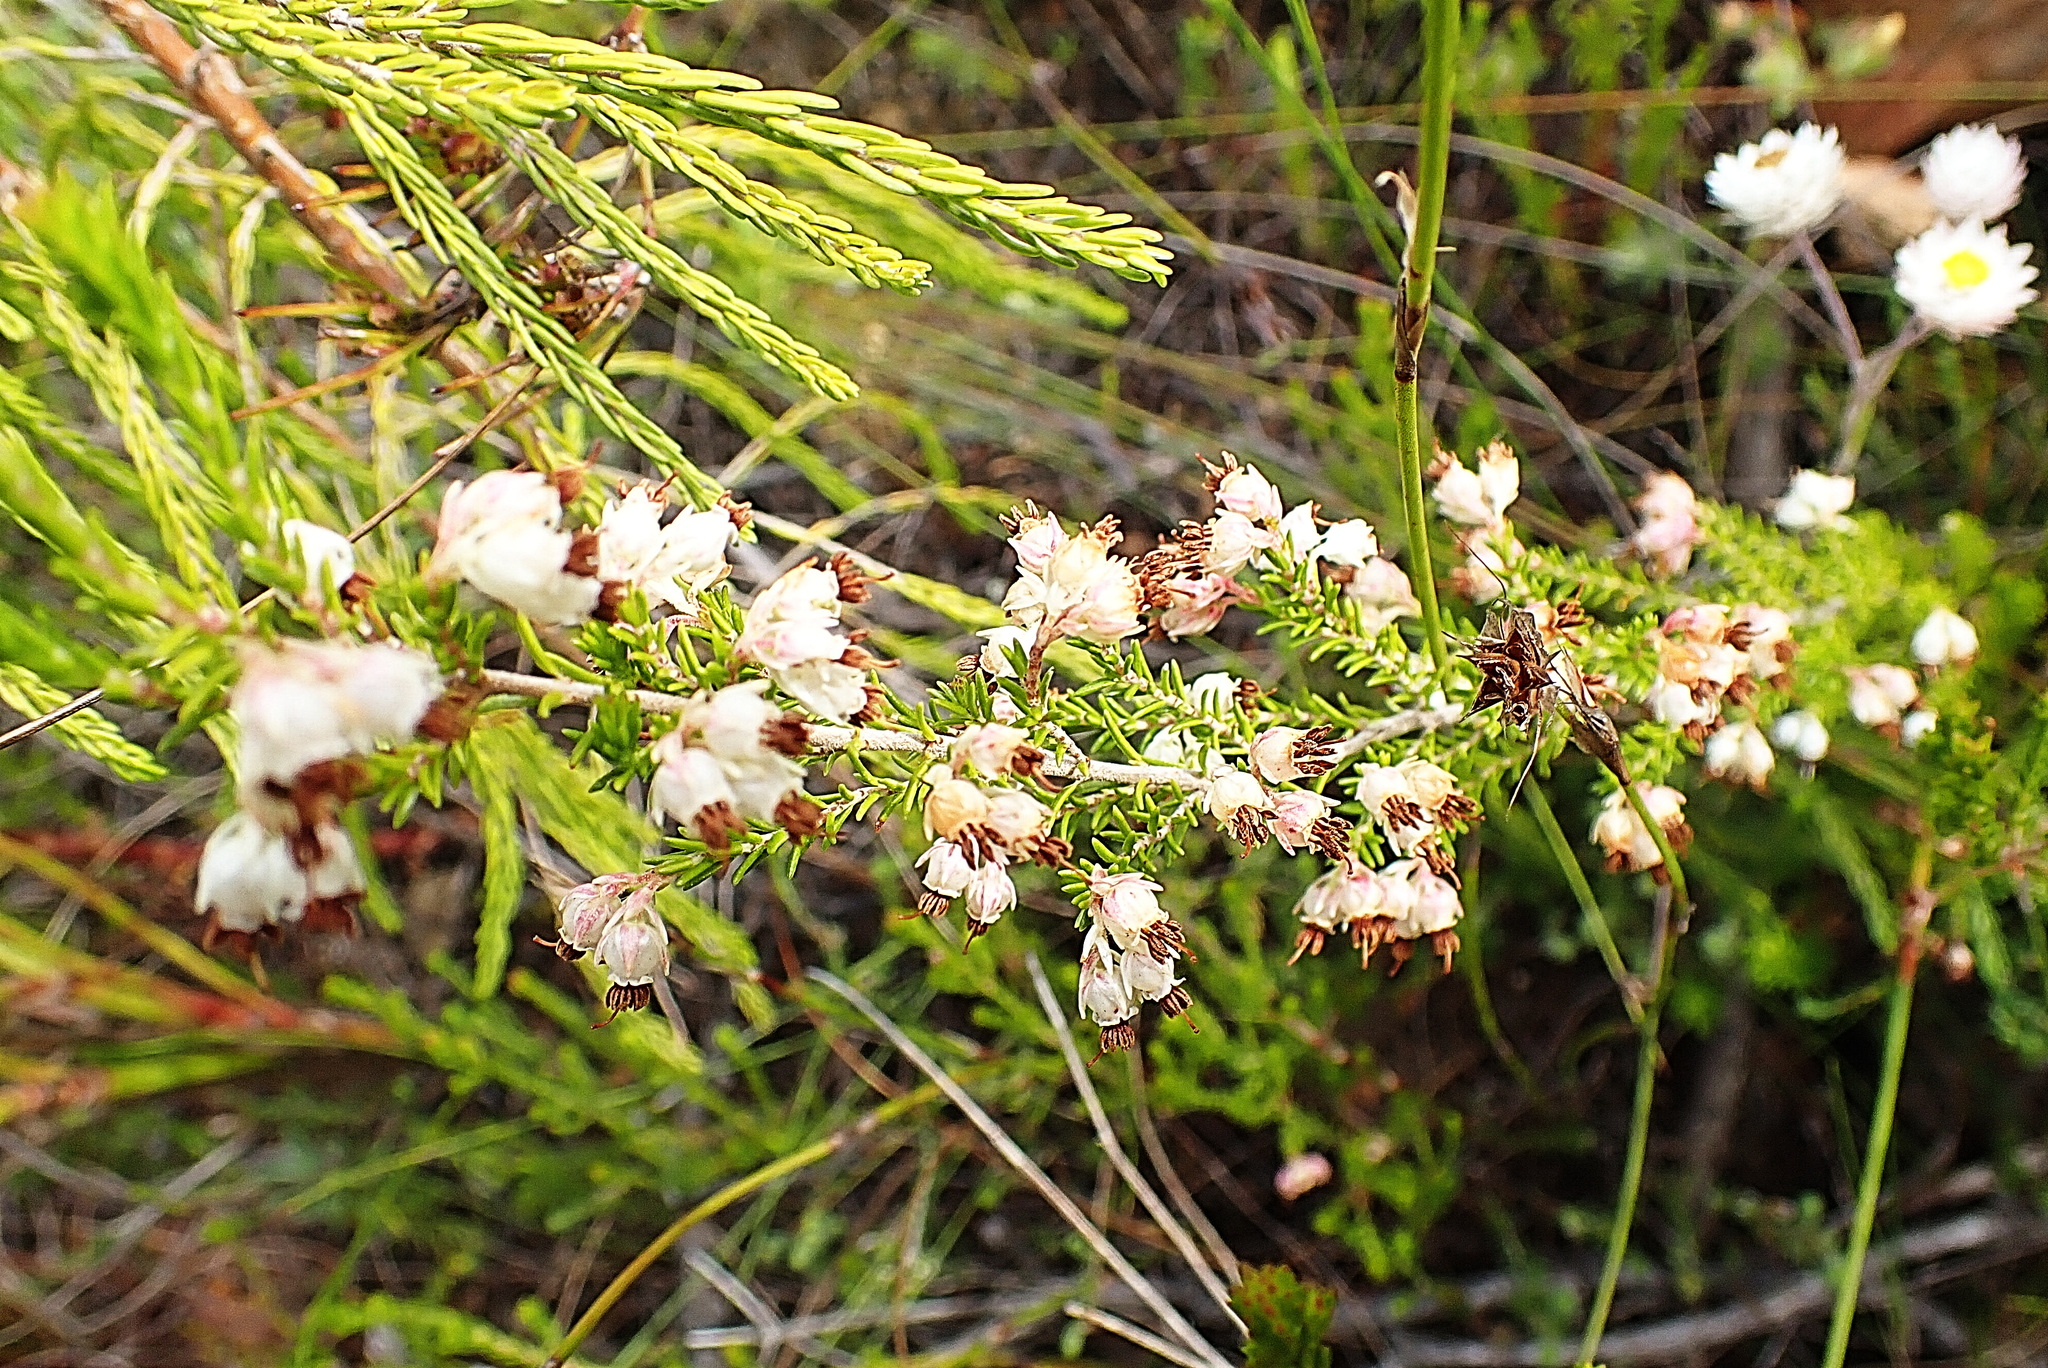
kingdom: Plantae
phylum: Tracheophyta
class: Magnoliopsida
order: Ericales
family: Ericaceae
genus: Erica
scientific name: Erica triceps
